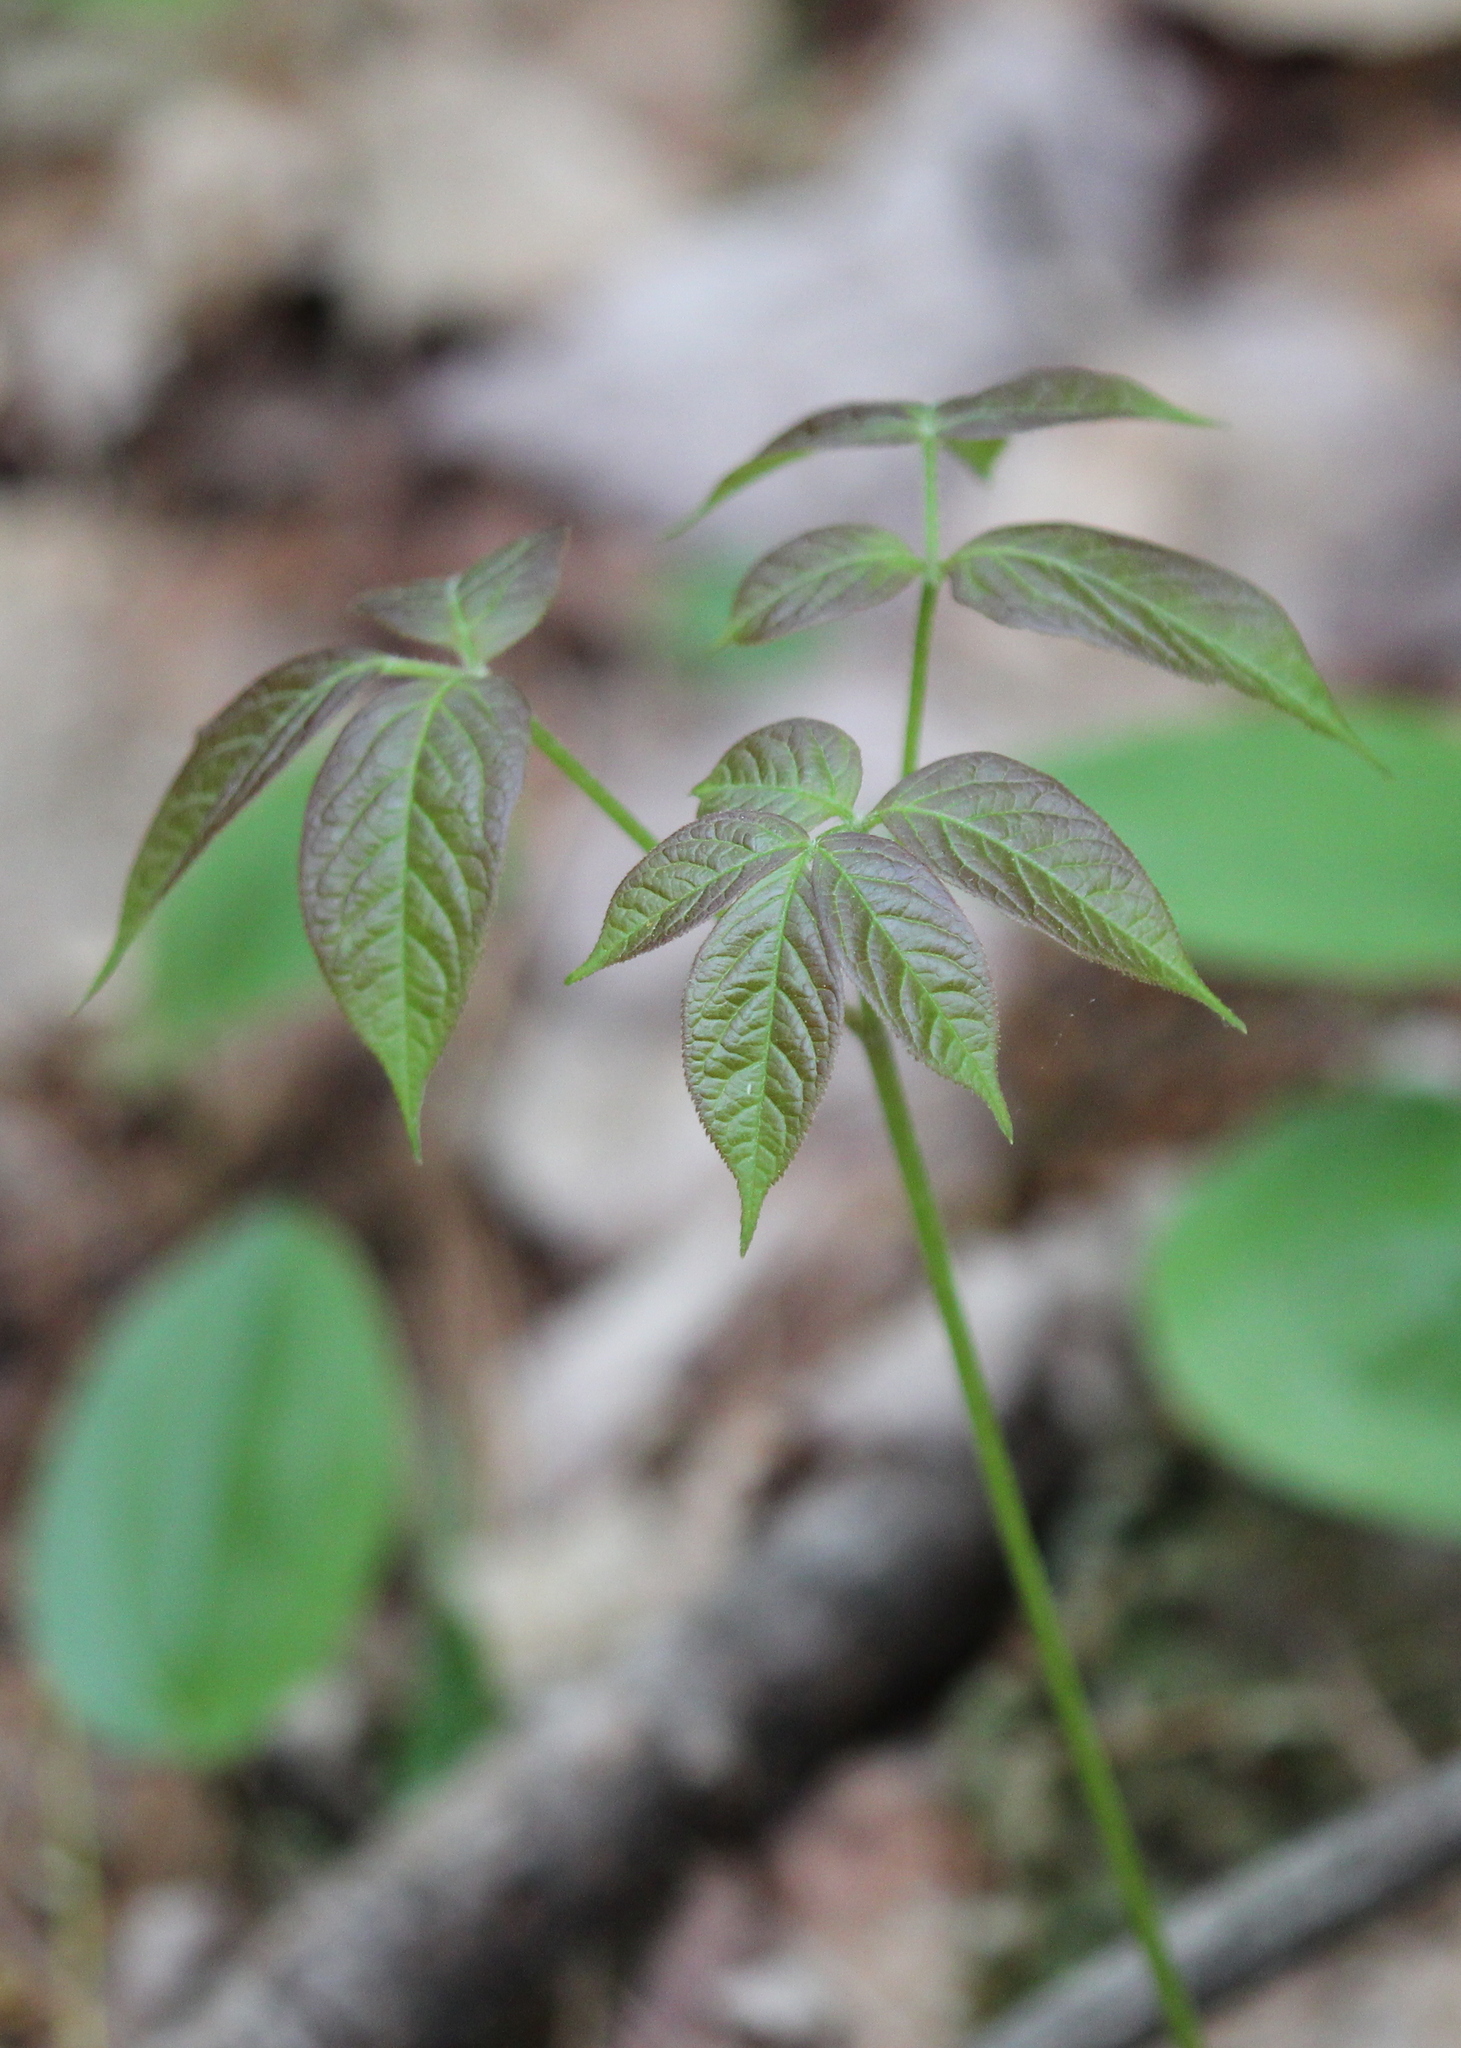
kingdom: Plantae
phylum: Tracheophyta
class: Magnoliopsida
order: Apiales
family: Araliaceae
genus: Aralia
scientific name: Aralia nudicaulis
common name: Wild sarsaparilla
